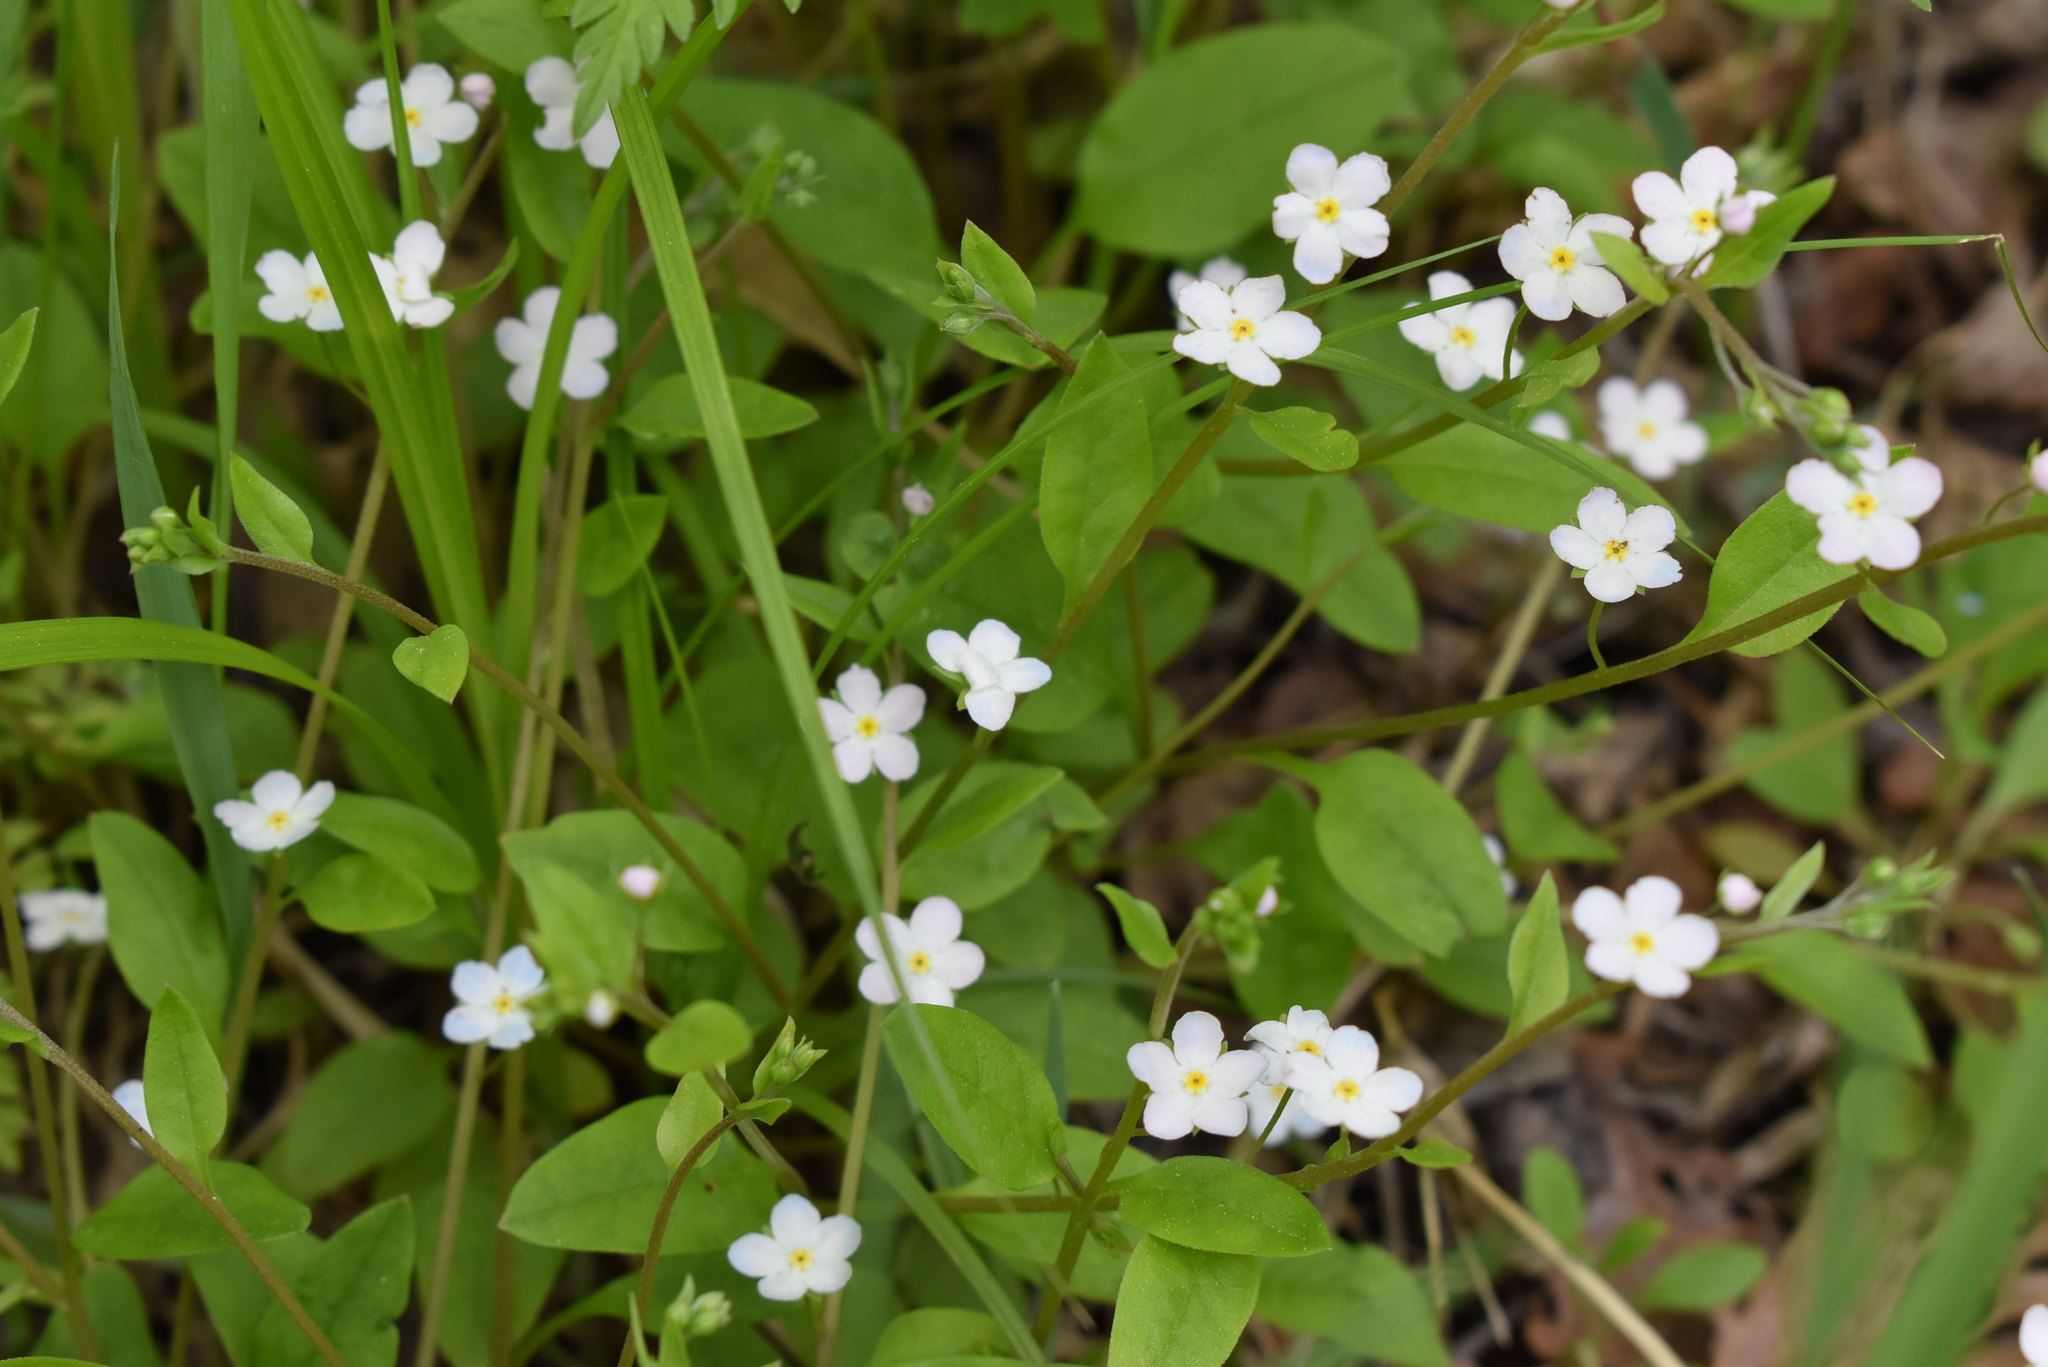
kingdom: Plantae
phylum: Tracheophyta
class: Magnoliopsida
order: Boraginales
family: Boraginaceae
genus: Trigonotis
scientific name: Trigonotis radicans
